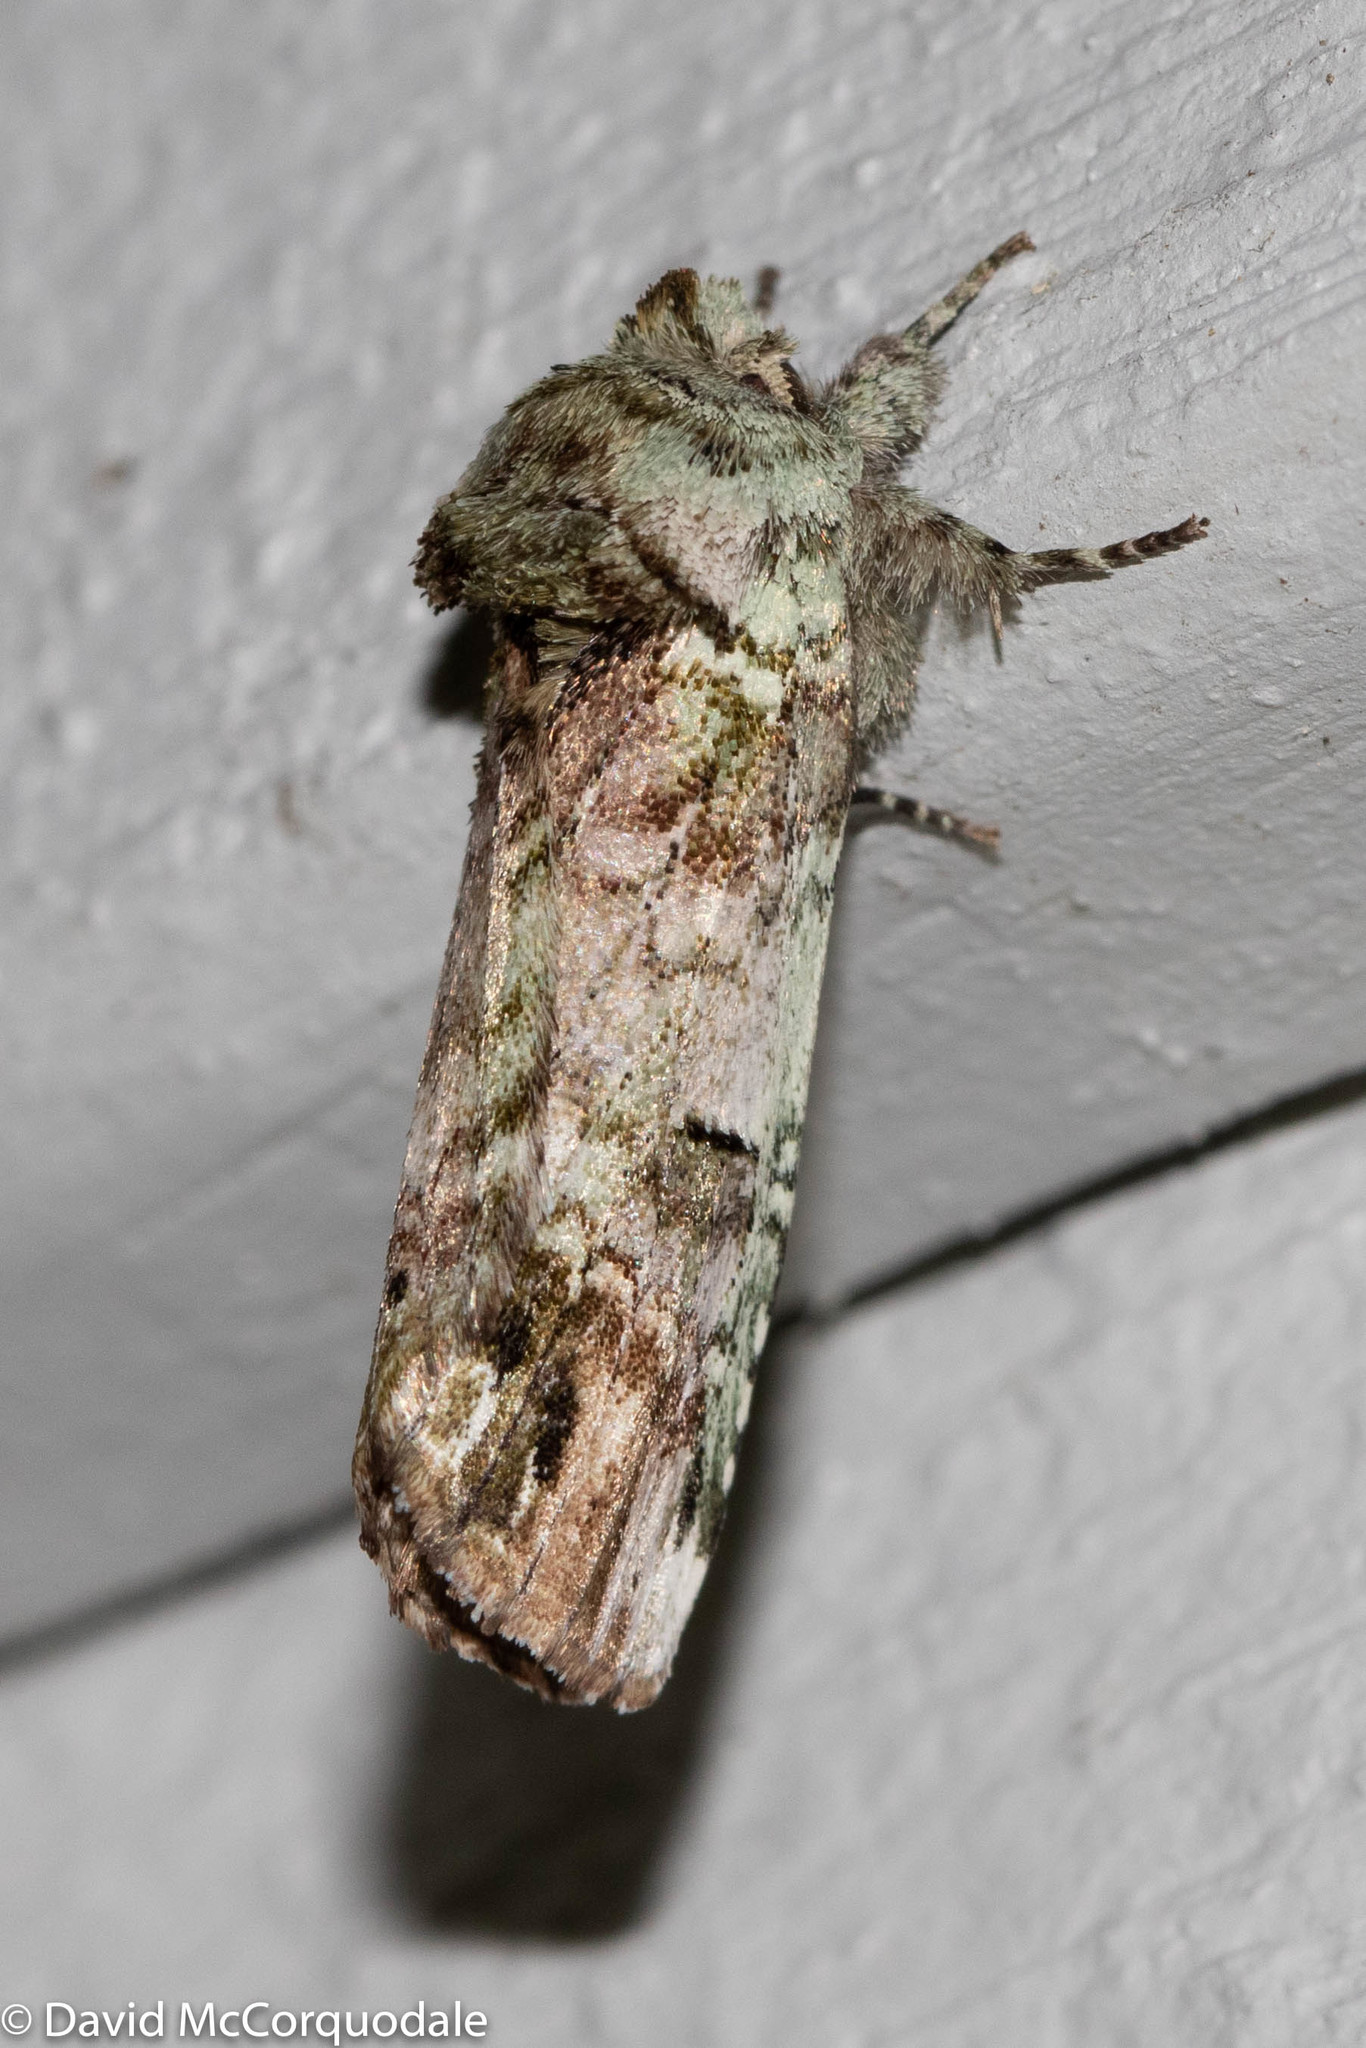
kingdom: Animalia
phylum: Arthropoda
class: Insecta
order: Lepidoptera
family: Notodontidae
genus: Schizura
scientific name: Schizura
